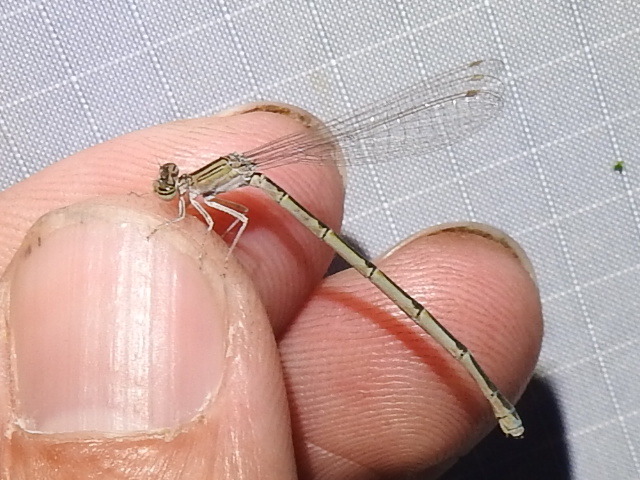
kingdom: Animalia
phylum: Arthropoda
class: Insecta
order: Odonata
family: Coenagrionidae
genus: Enallagma
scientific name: Enallagma basidens
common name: Double-striped bluet
